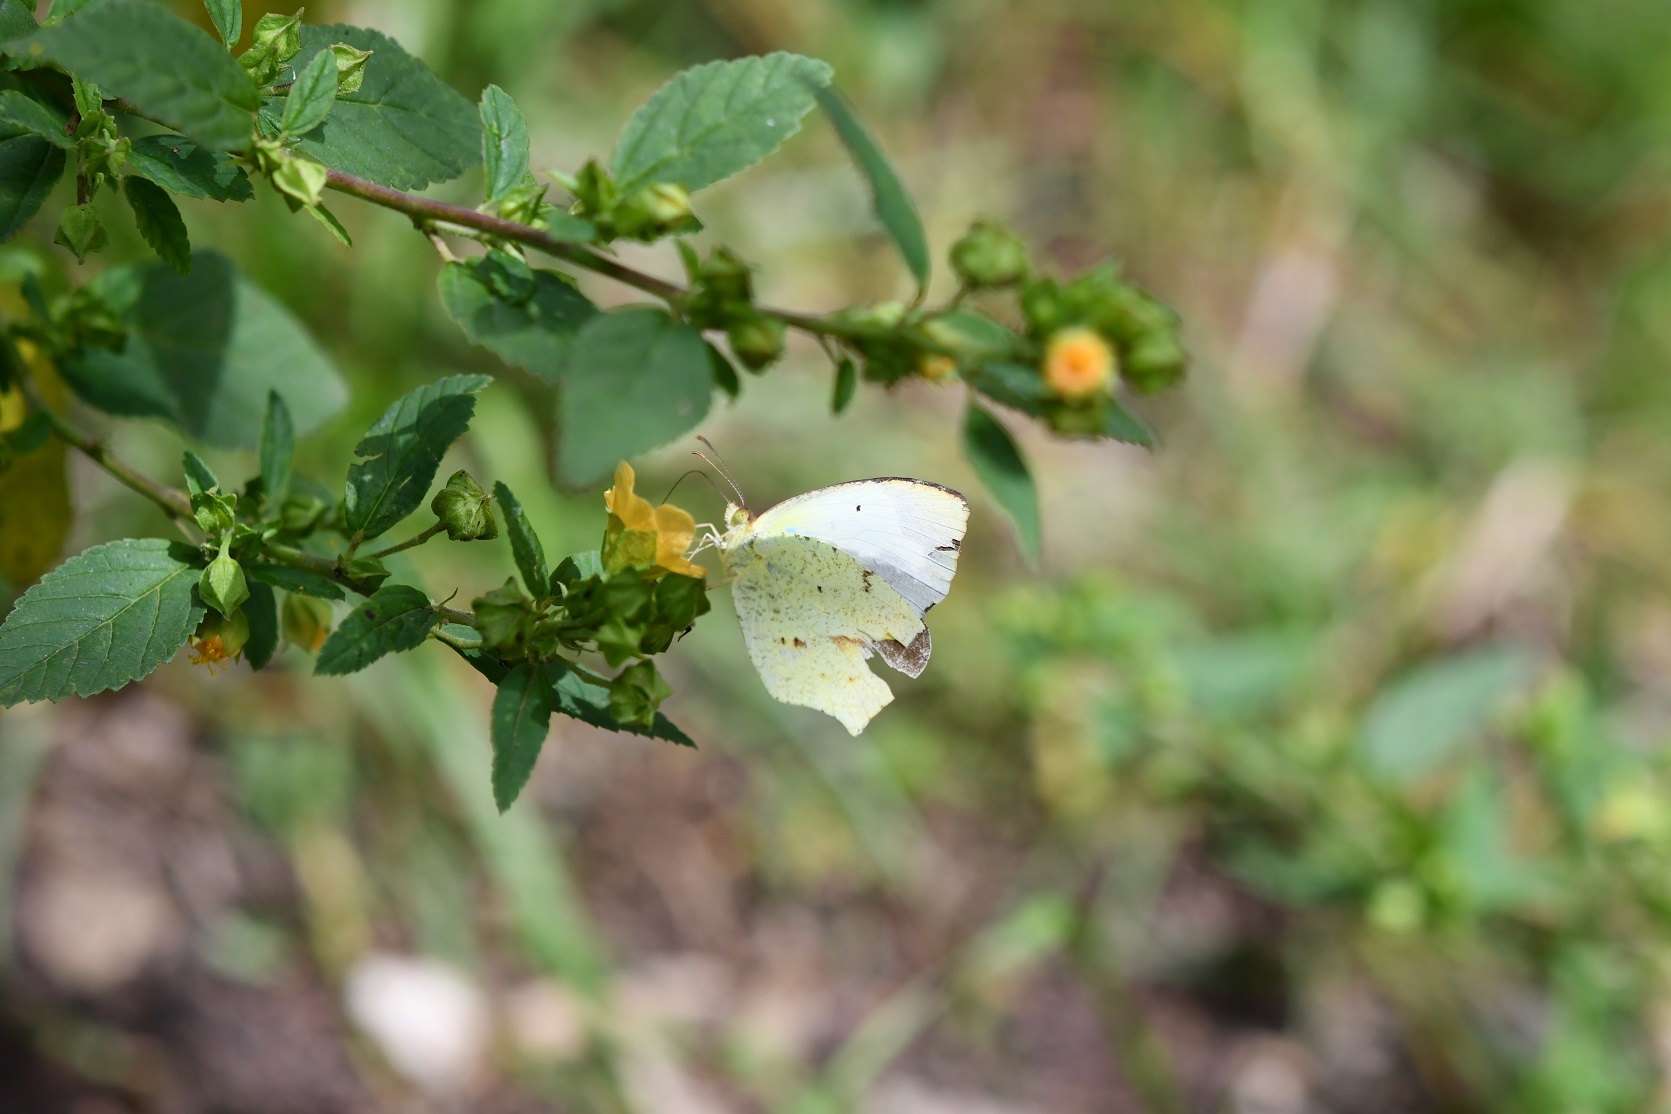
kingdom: Animalia
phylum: Arthropoda
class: Insecta
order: Lepidoptera
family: Pieridae
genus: Abaeis
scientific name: Abaeis mexicana
